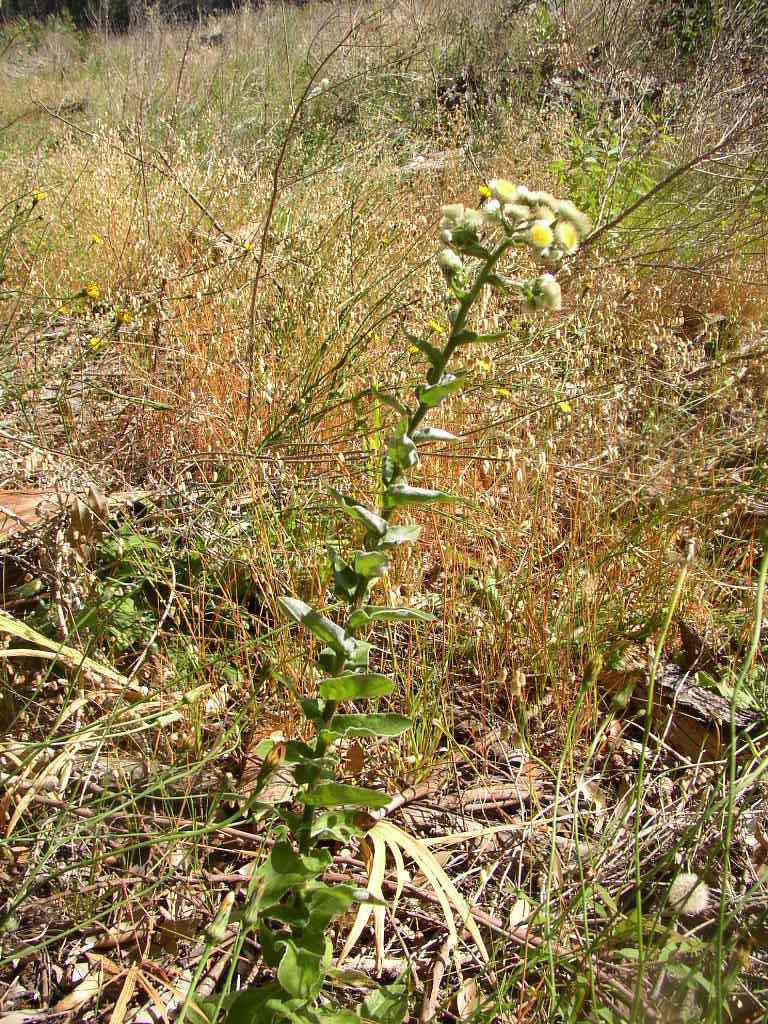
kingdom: Plantae
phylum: Tracheophyta
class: Magnoliopsida
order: Asterales
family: Asteraceae
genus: Helichrysum
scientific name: Helichrysum foetidum
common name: Stinking everlasting
